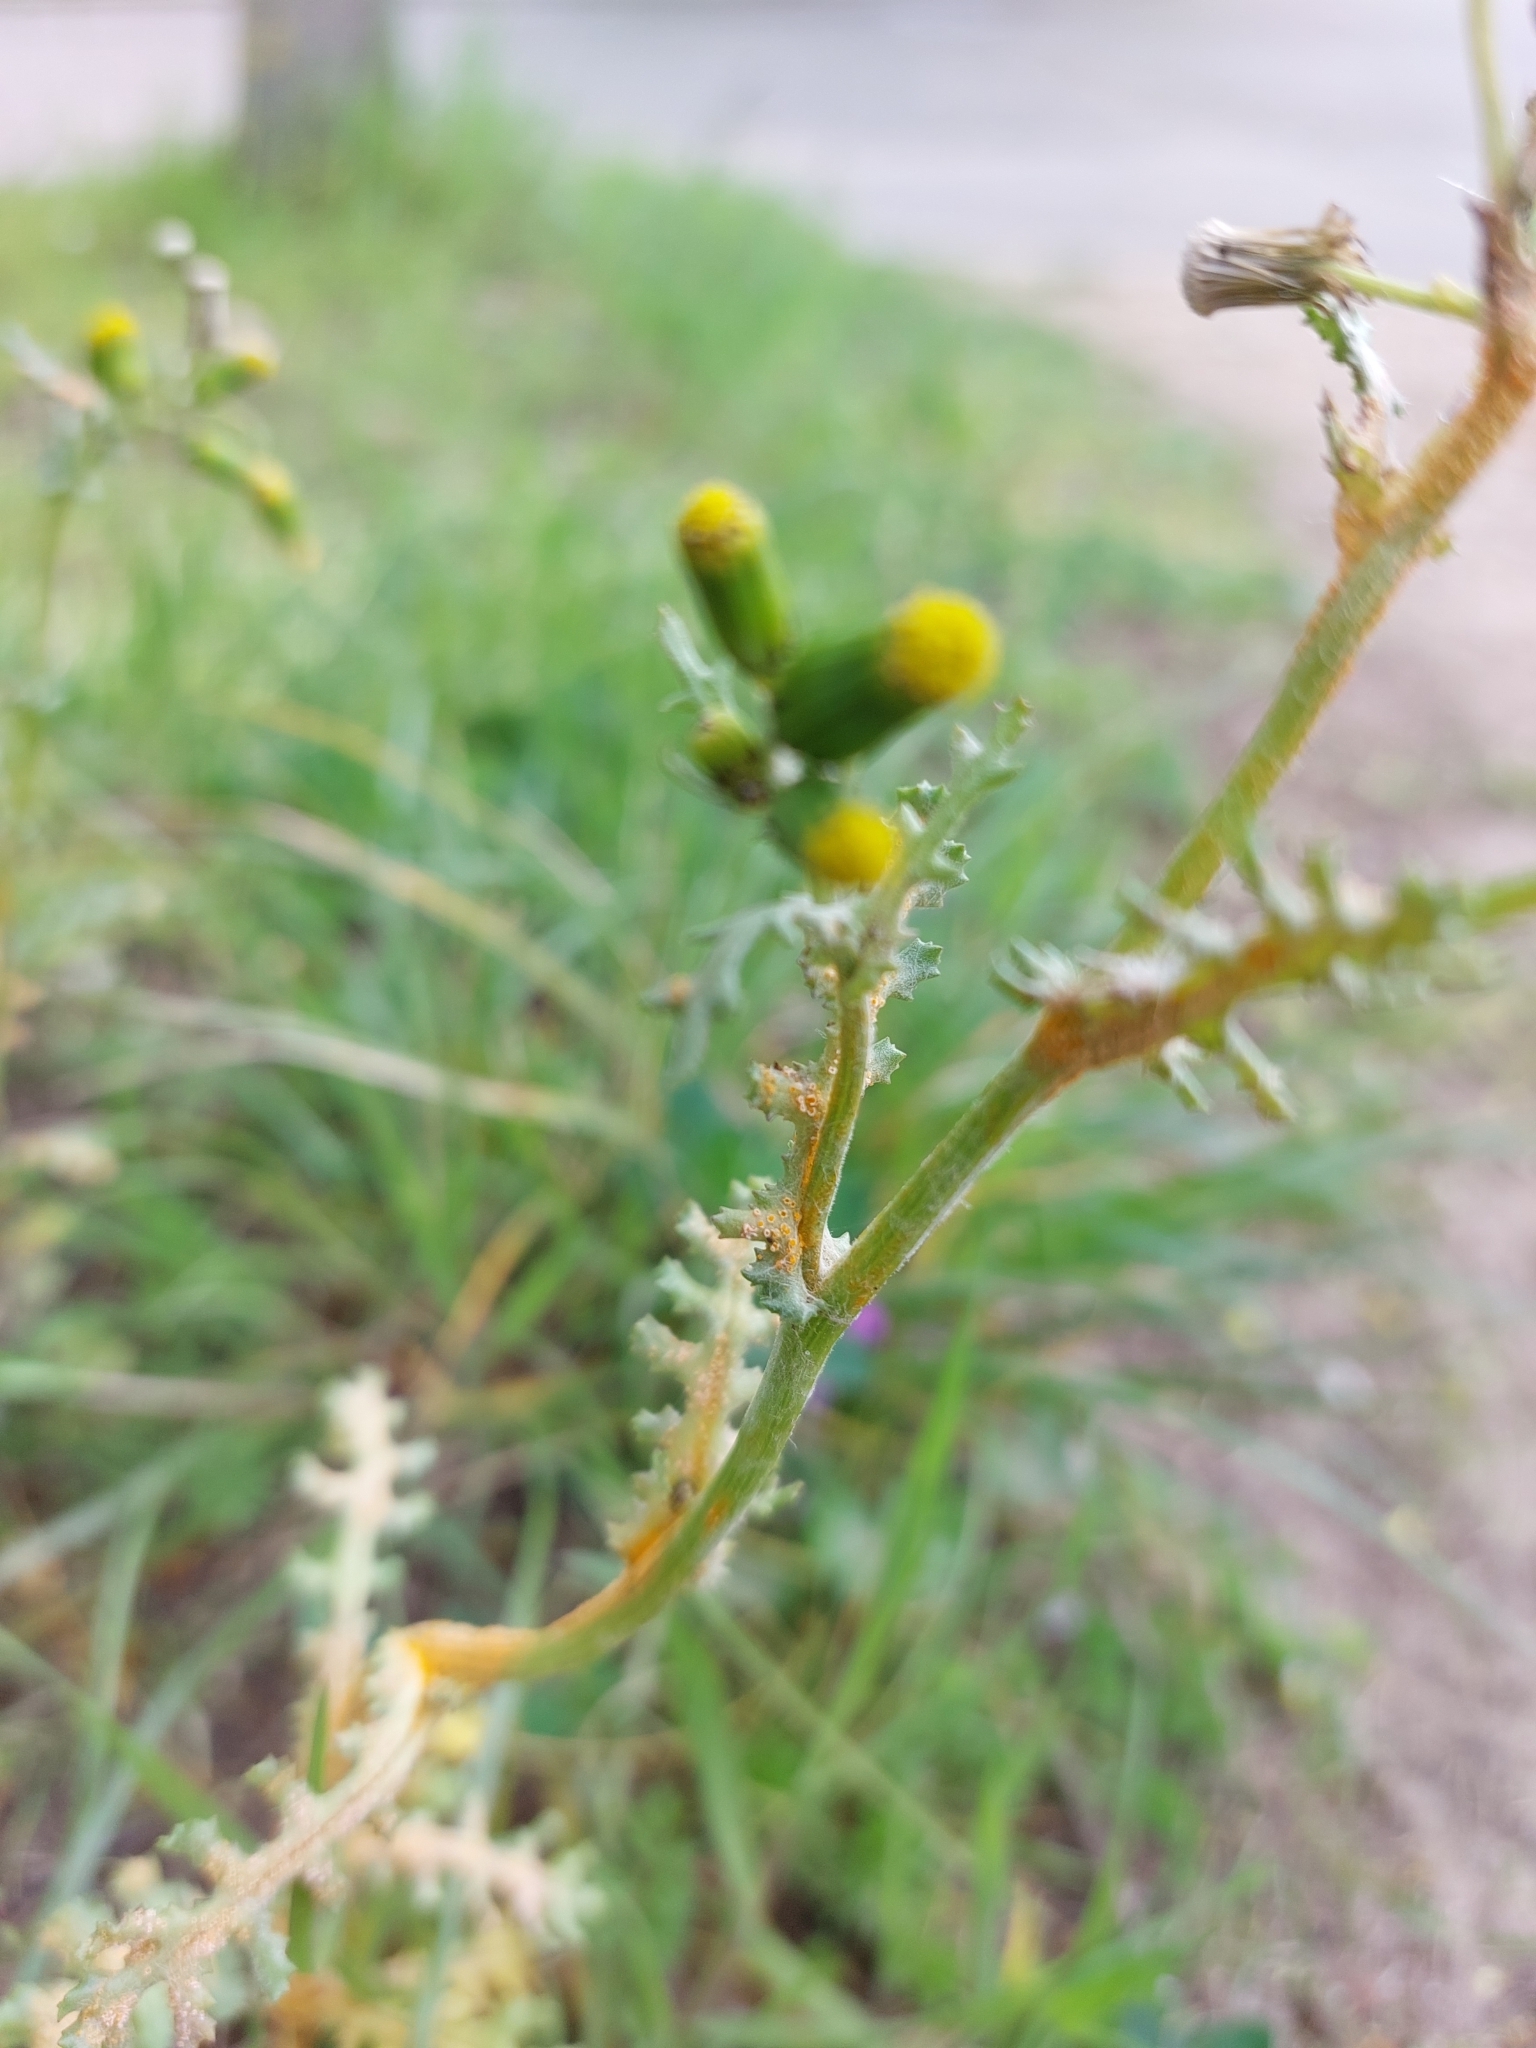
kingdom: Fungi
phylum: Basidiomycota
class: Pucciniomycetes
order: Pucciniales
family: Pucciniaceae
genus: Puccinia
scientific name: Puccinia lagenophorae
